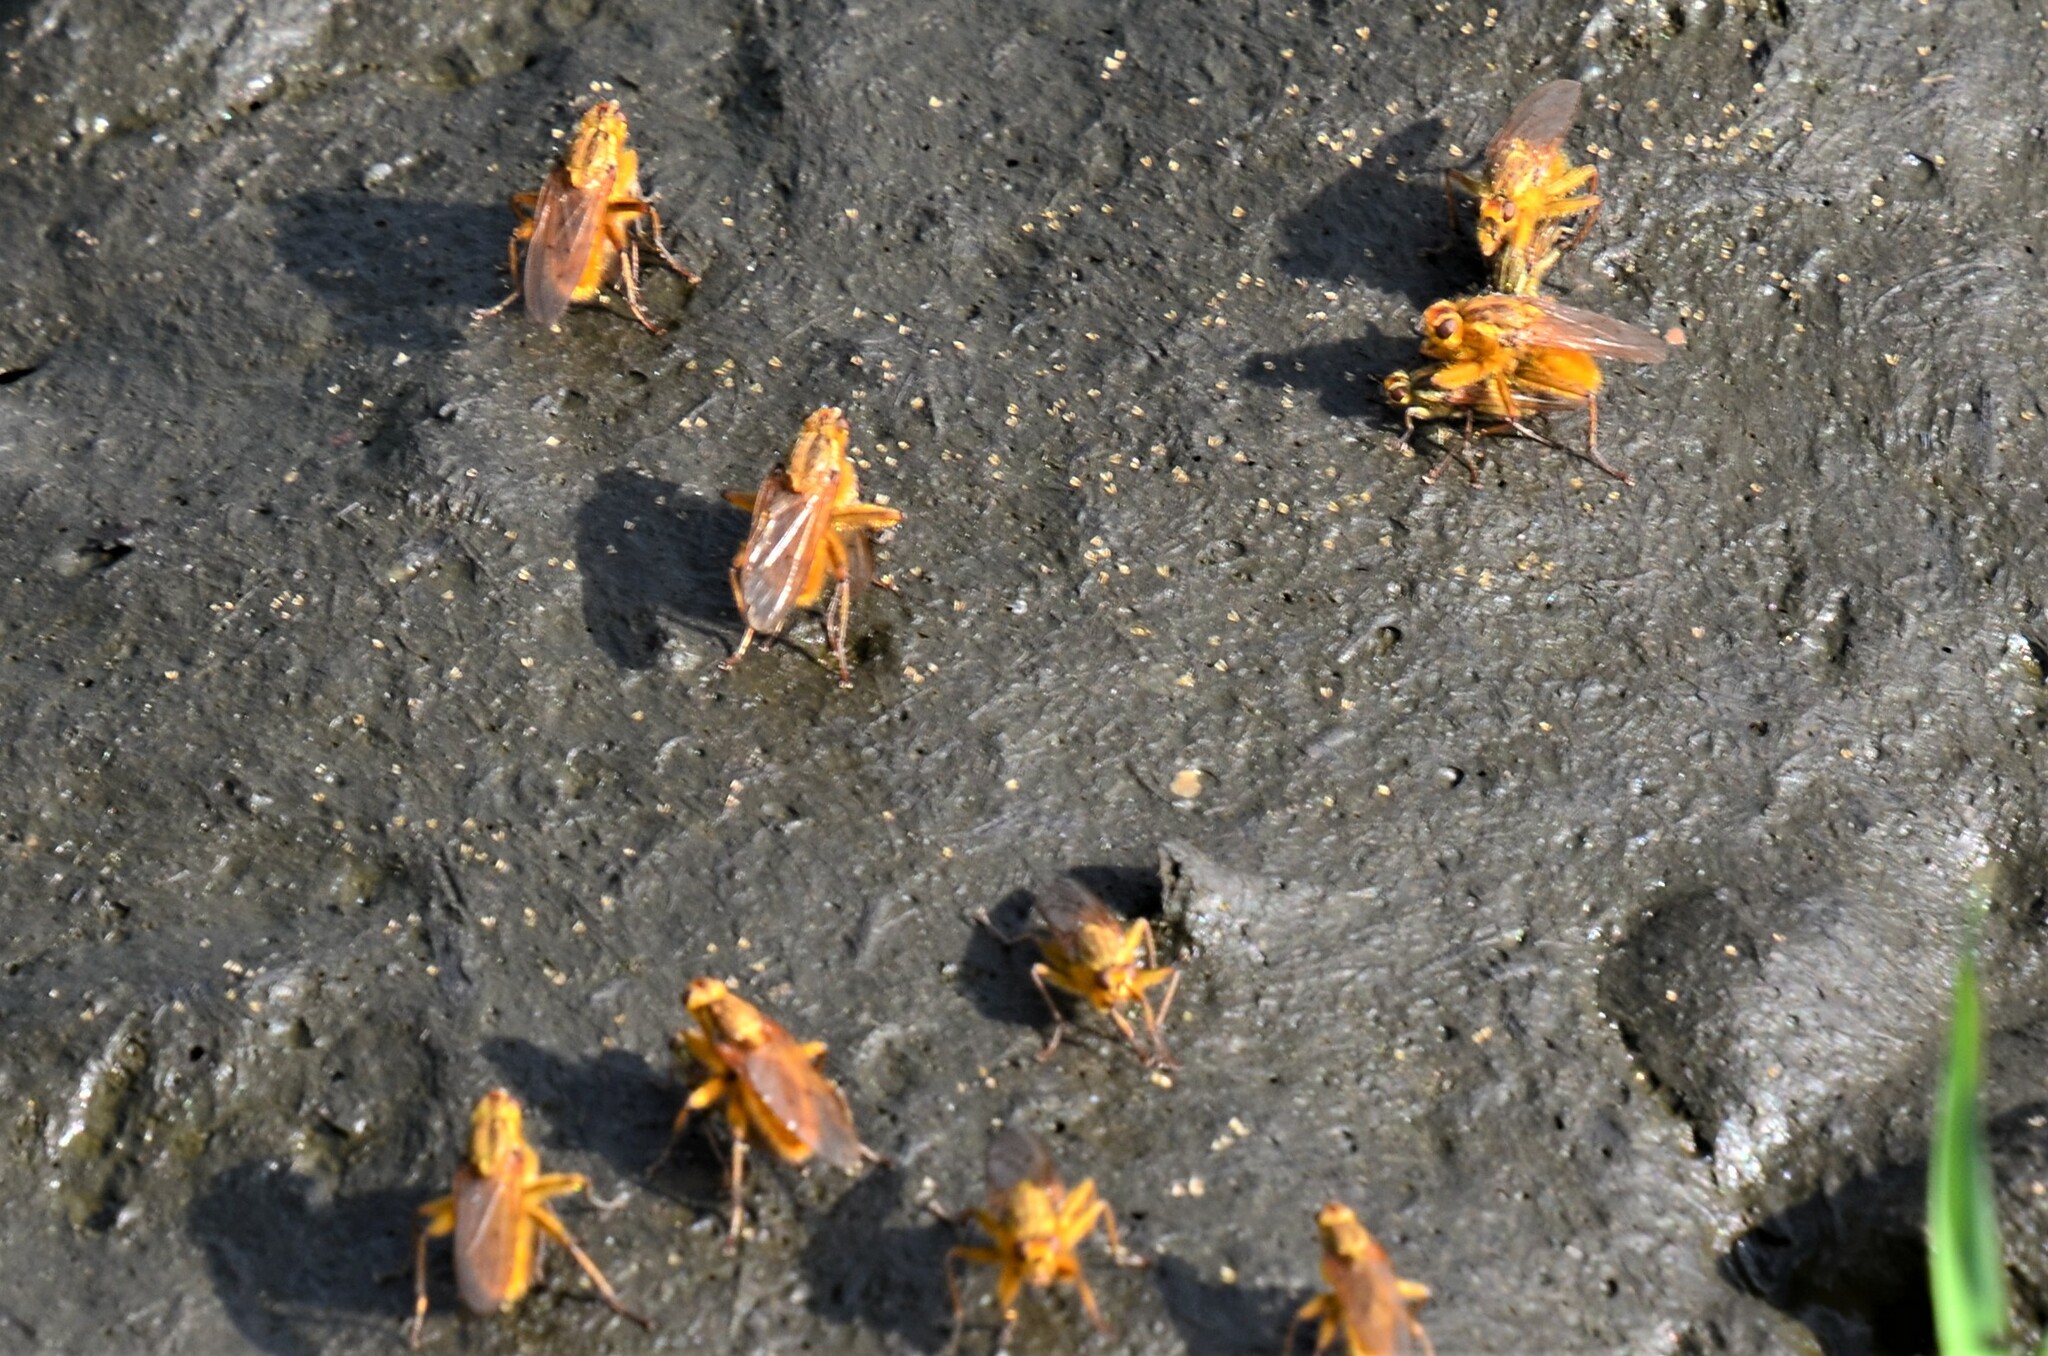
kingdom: Animalia
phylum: Arthropoda
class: Insecta
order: Diptera
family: Scathophagidae
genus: Scathophaga
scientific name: Scathophaga stercoraria
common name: Yellow dung fly
